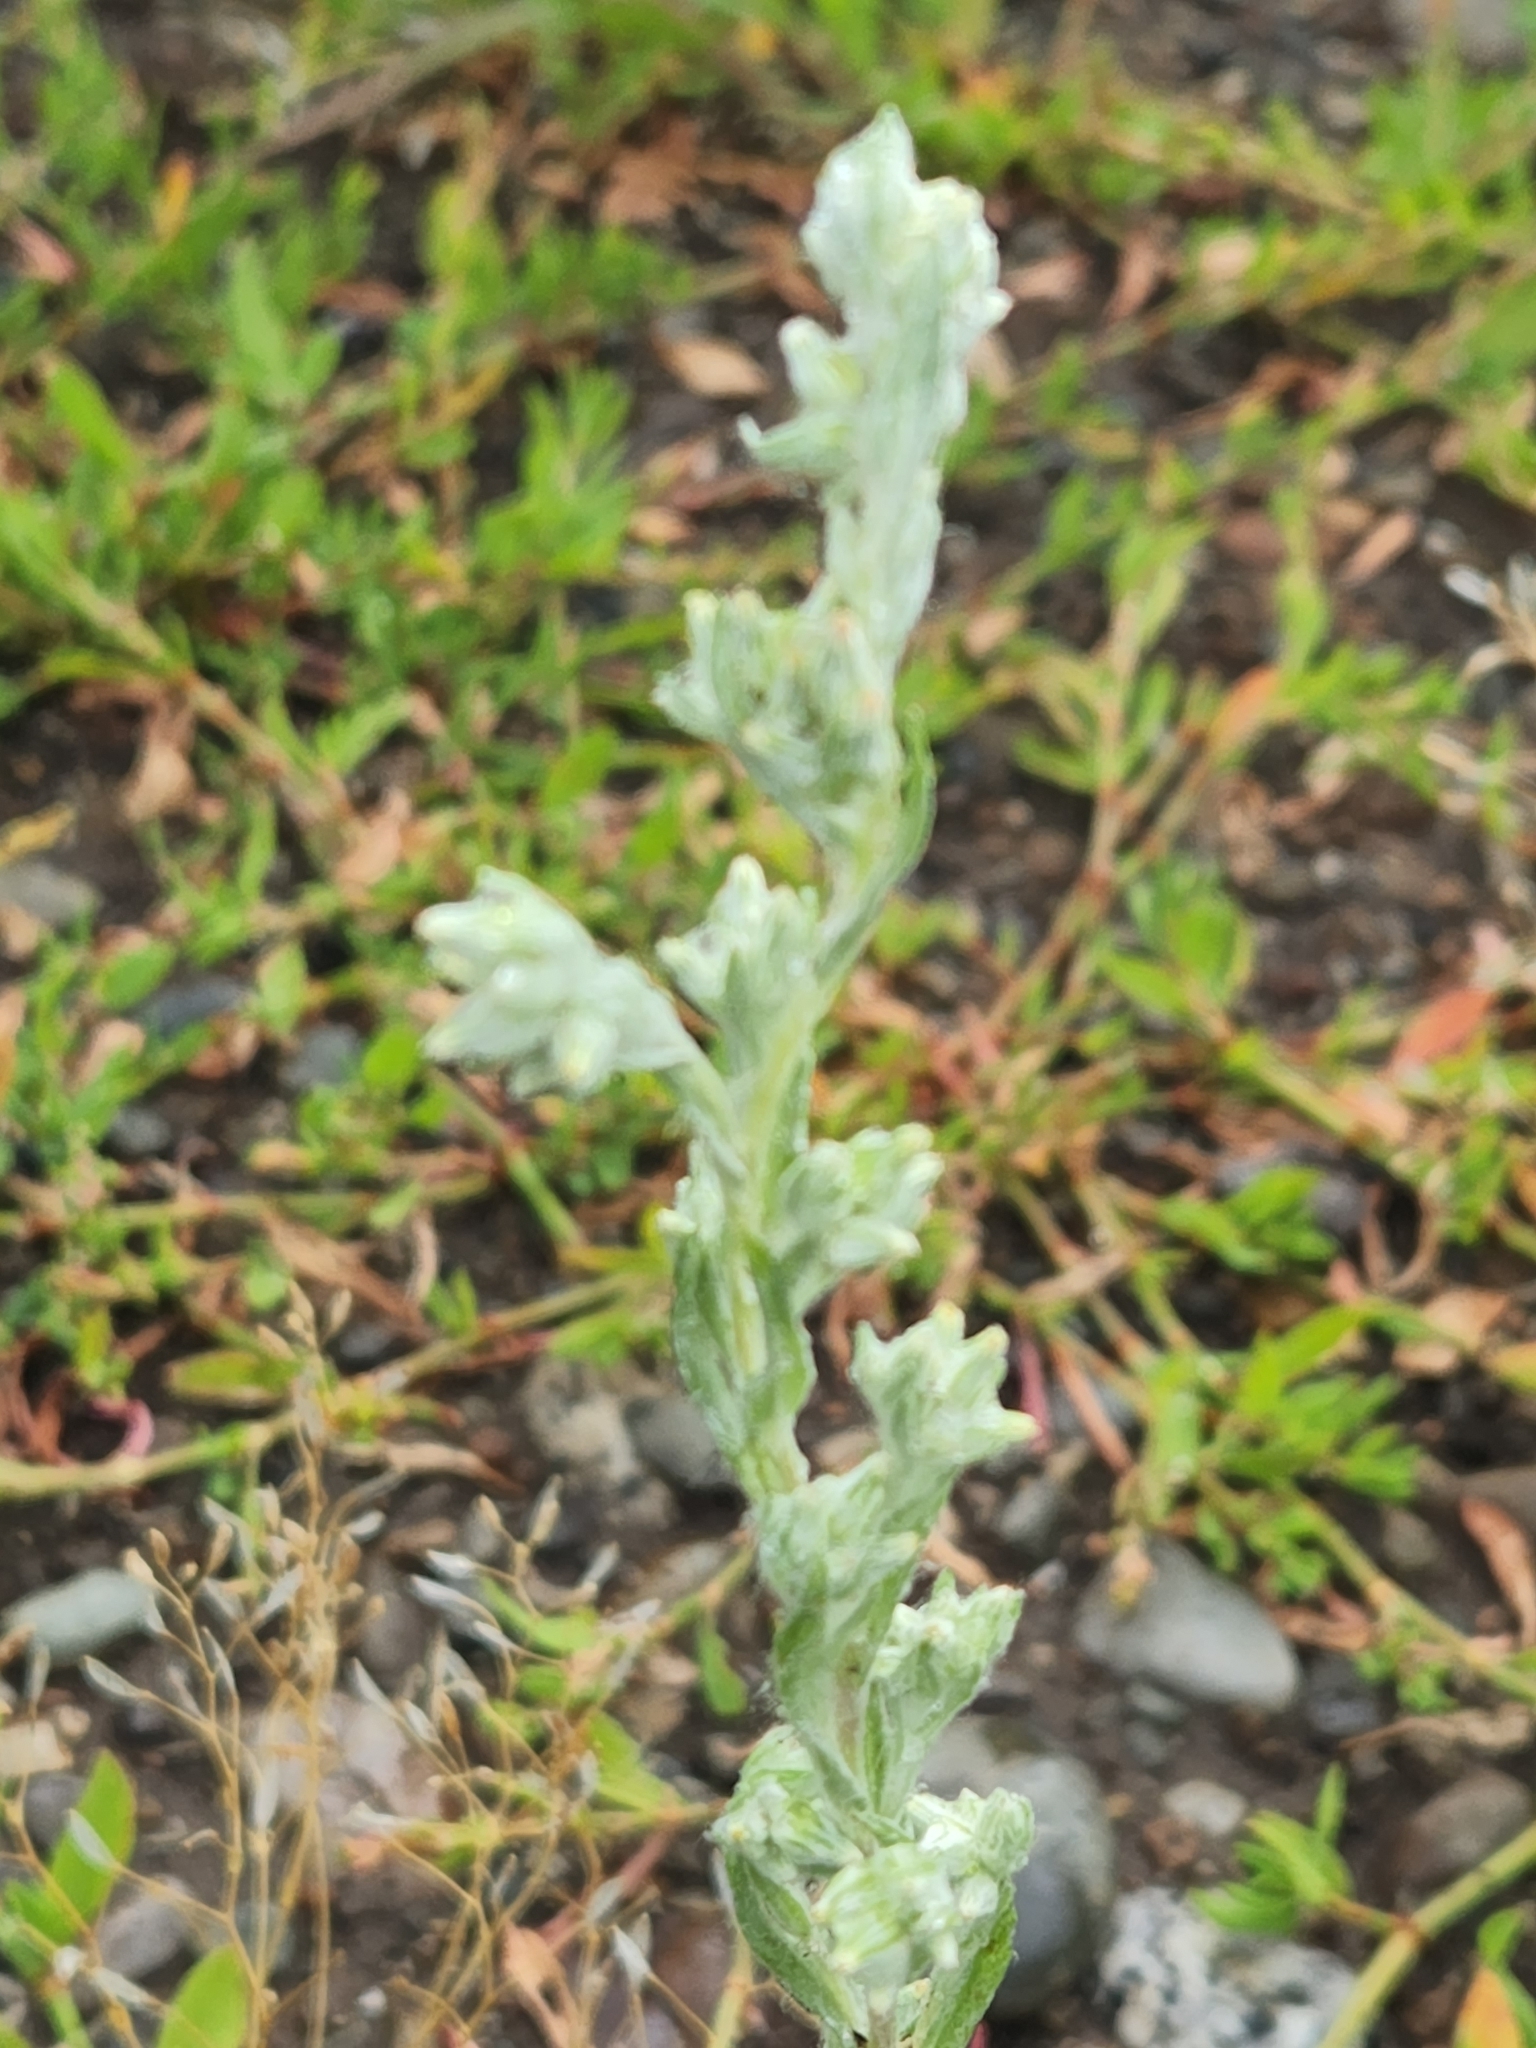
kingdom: Plantae
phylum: Tracheophyta
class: Magnoliopsida
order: Asterales
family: Asteraceae
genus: Filago
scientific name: Filago arvensis
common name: Field cudweed
